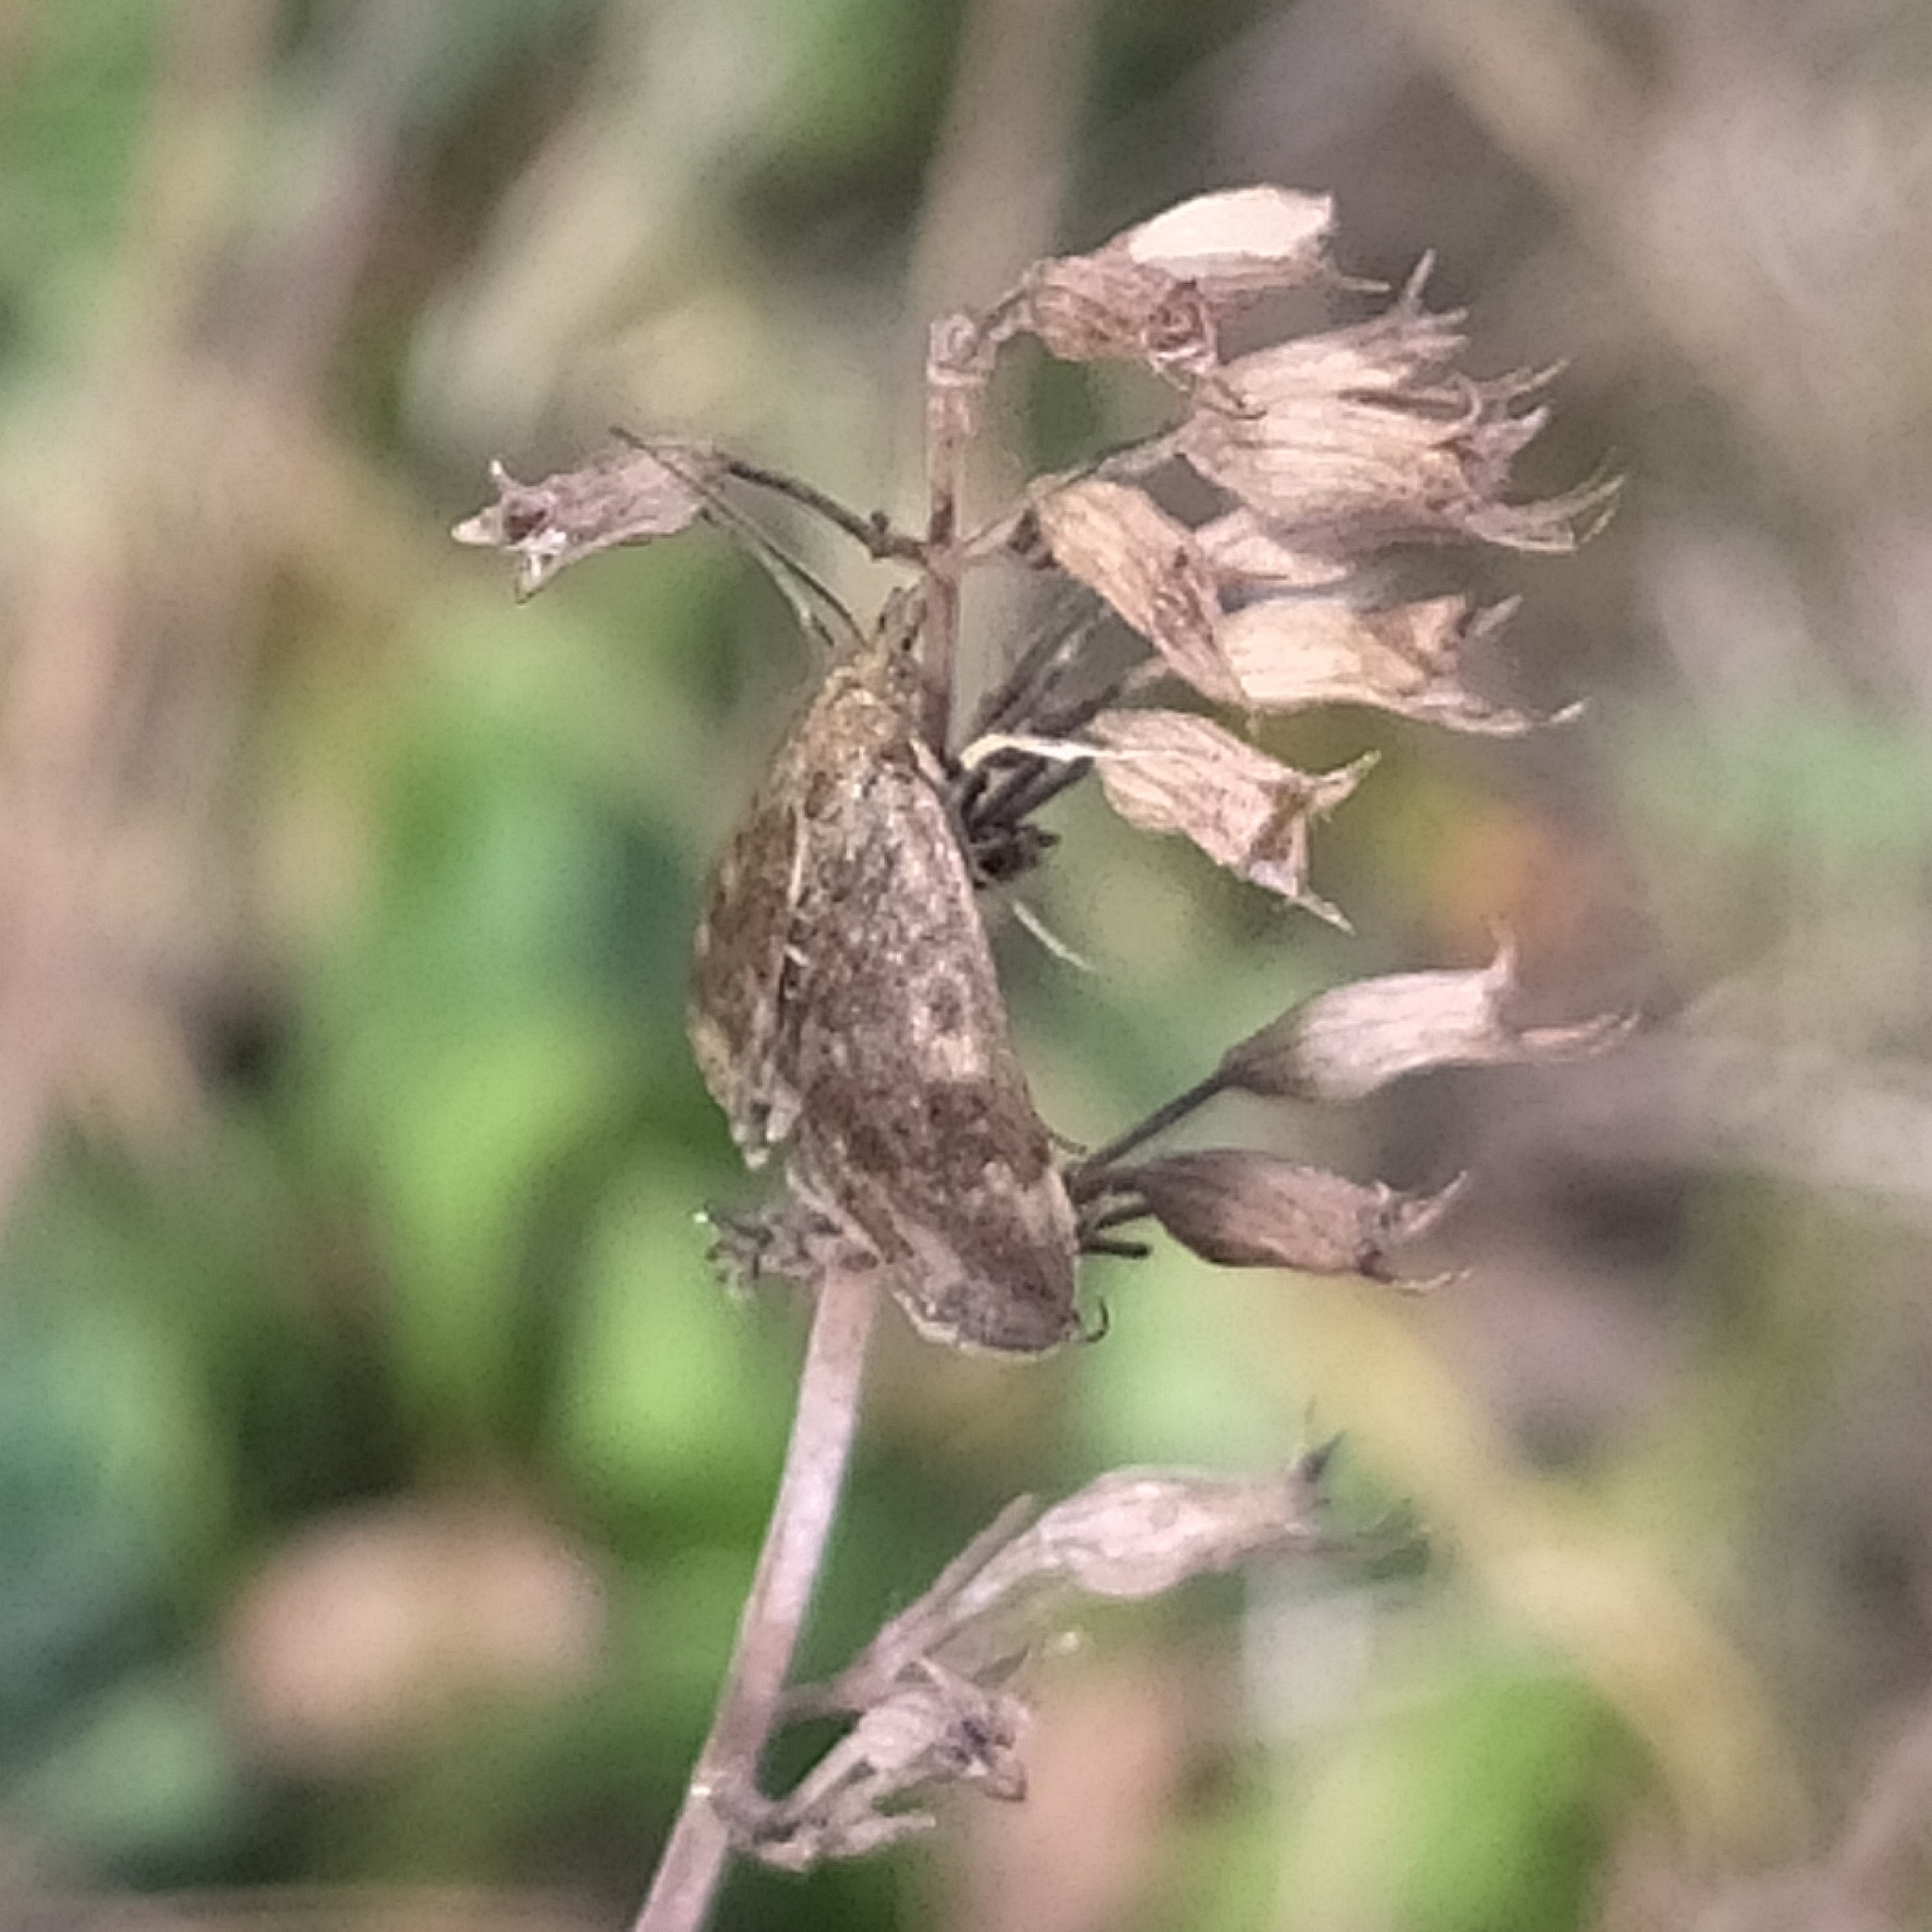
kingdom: Animalia
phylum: Arthropoda
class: Insecta
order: Lepidoptera
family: Crambidae
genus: Pyrausta
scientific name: Pyrausta despicata
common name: Straw-barred pearl
